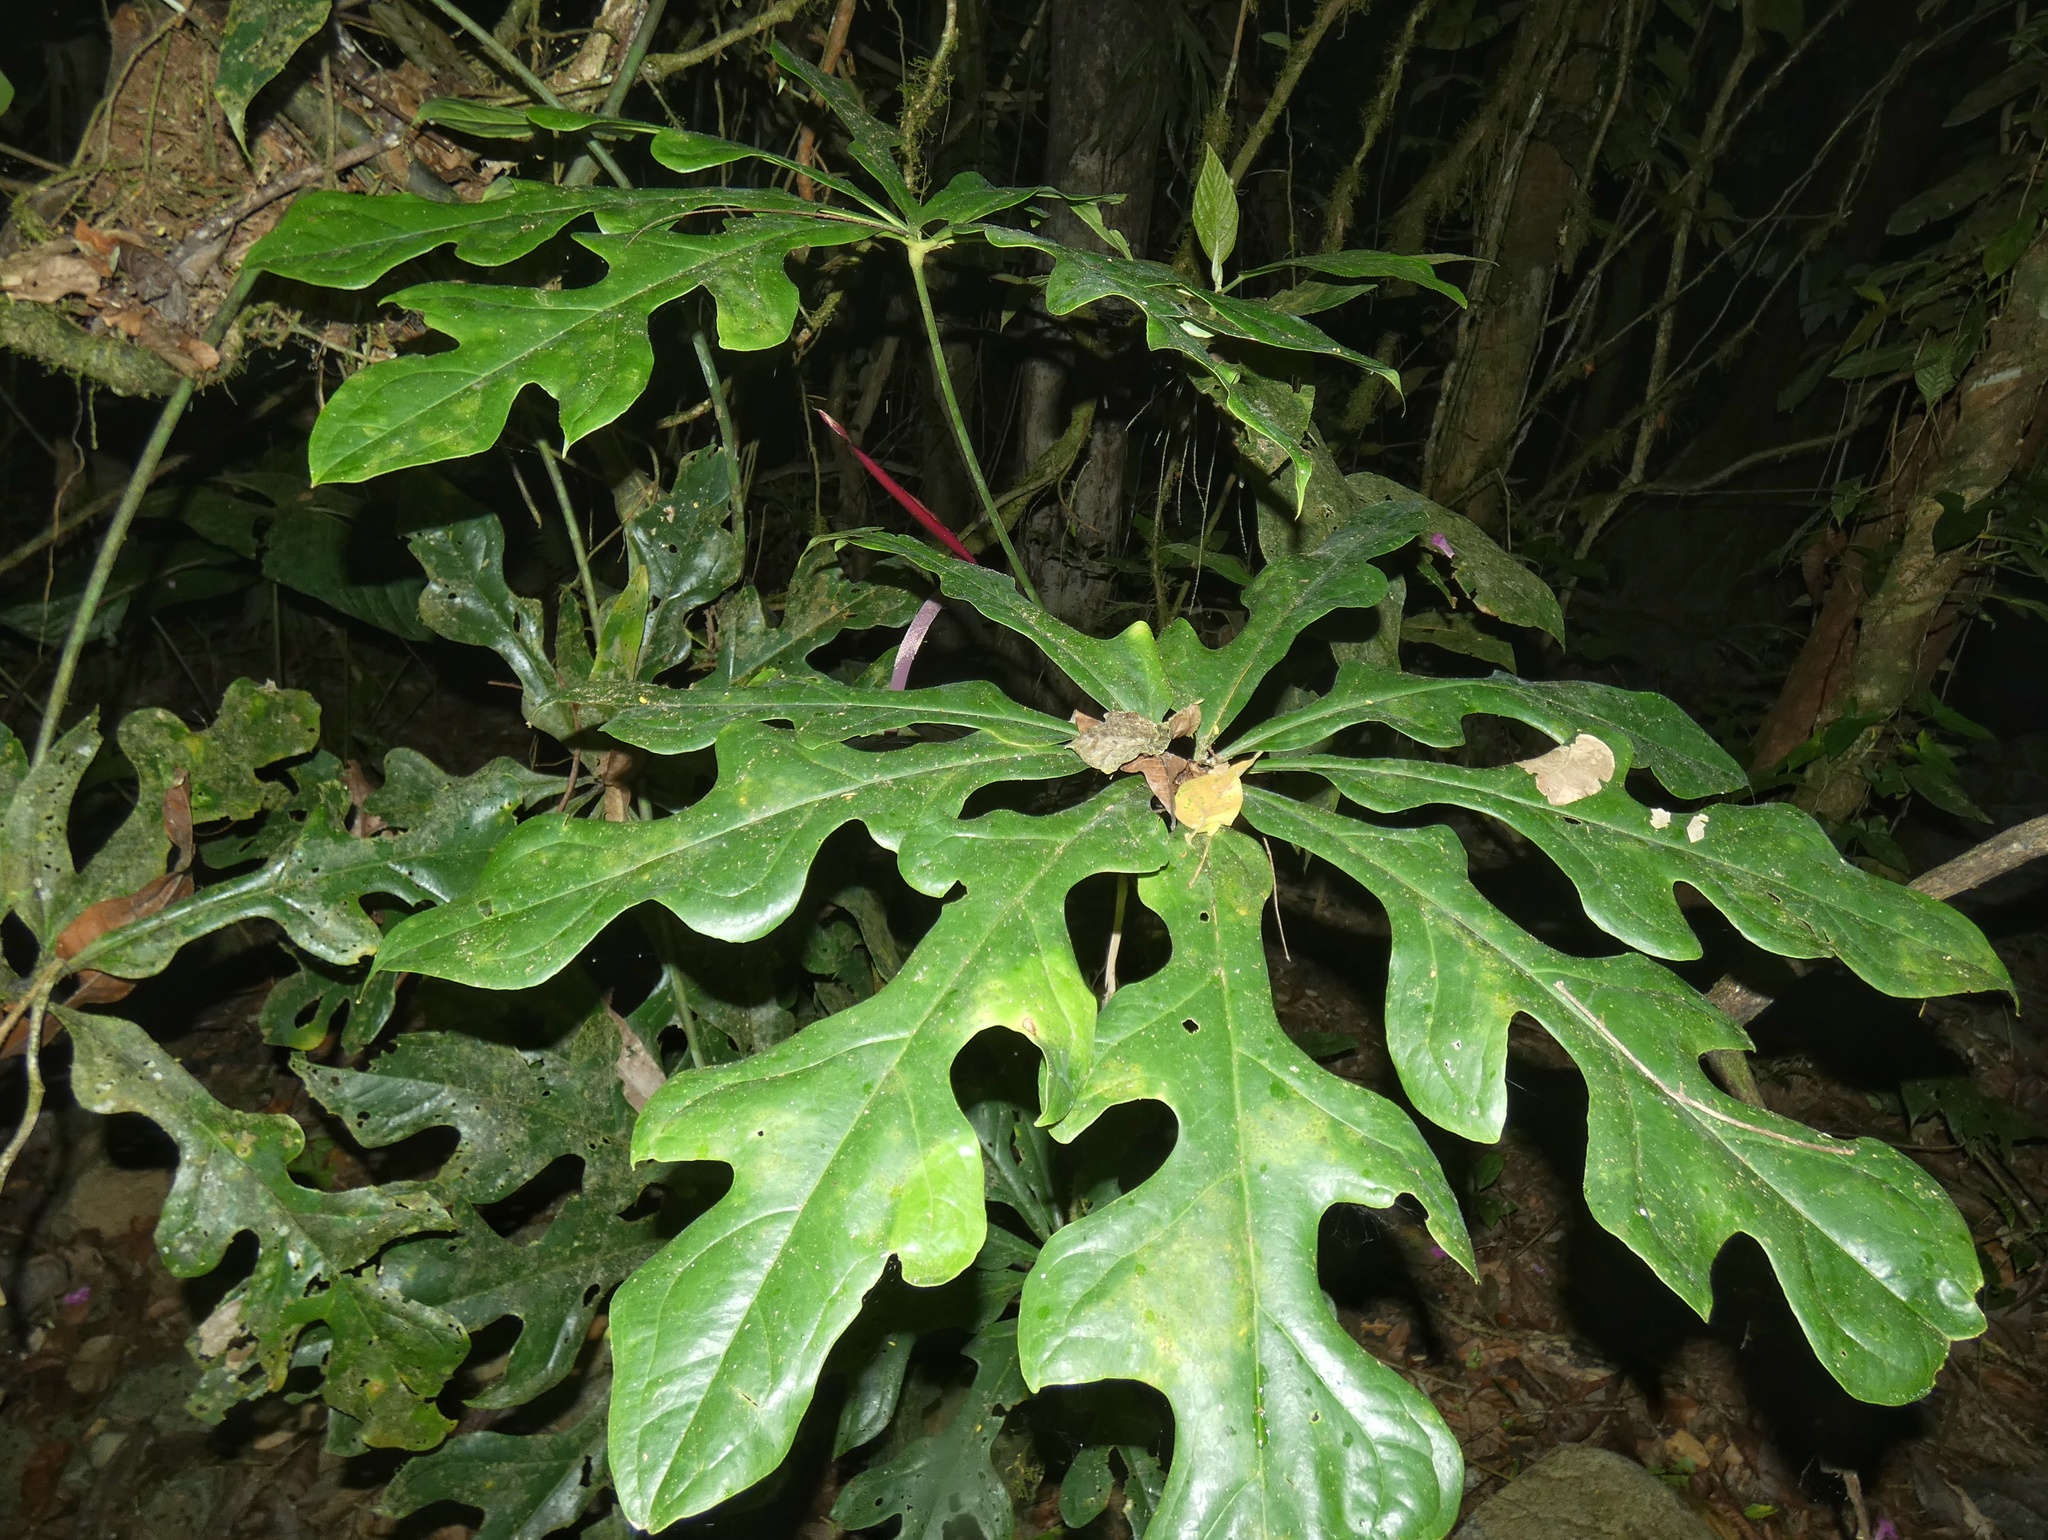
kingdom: Plantae
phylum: Tracheophyta
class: Liliopsida
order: Alismatales
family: Araceae
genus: Anthurium
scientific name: Anthurium clavigerum
